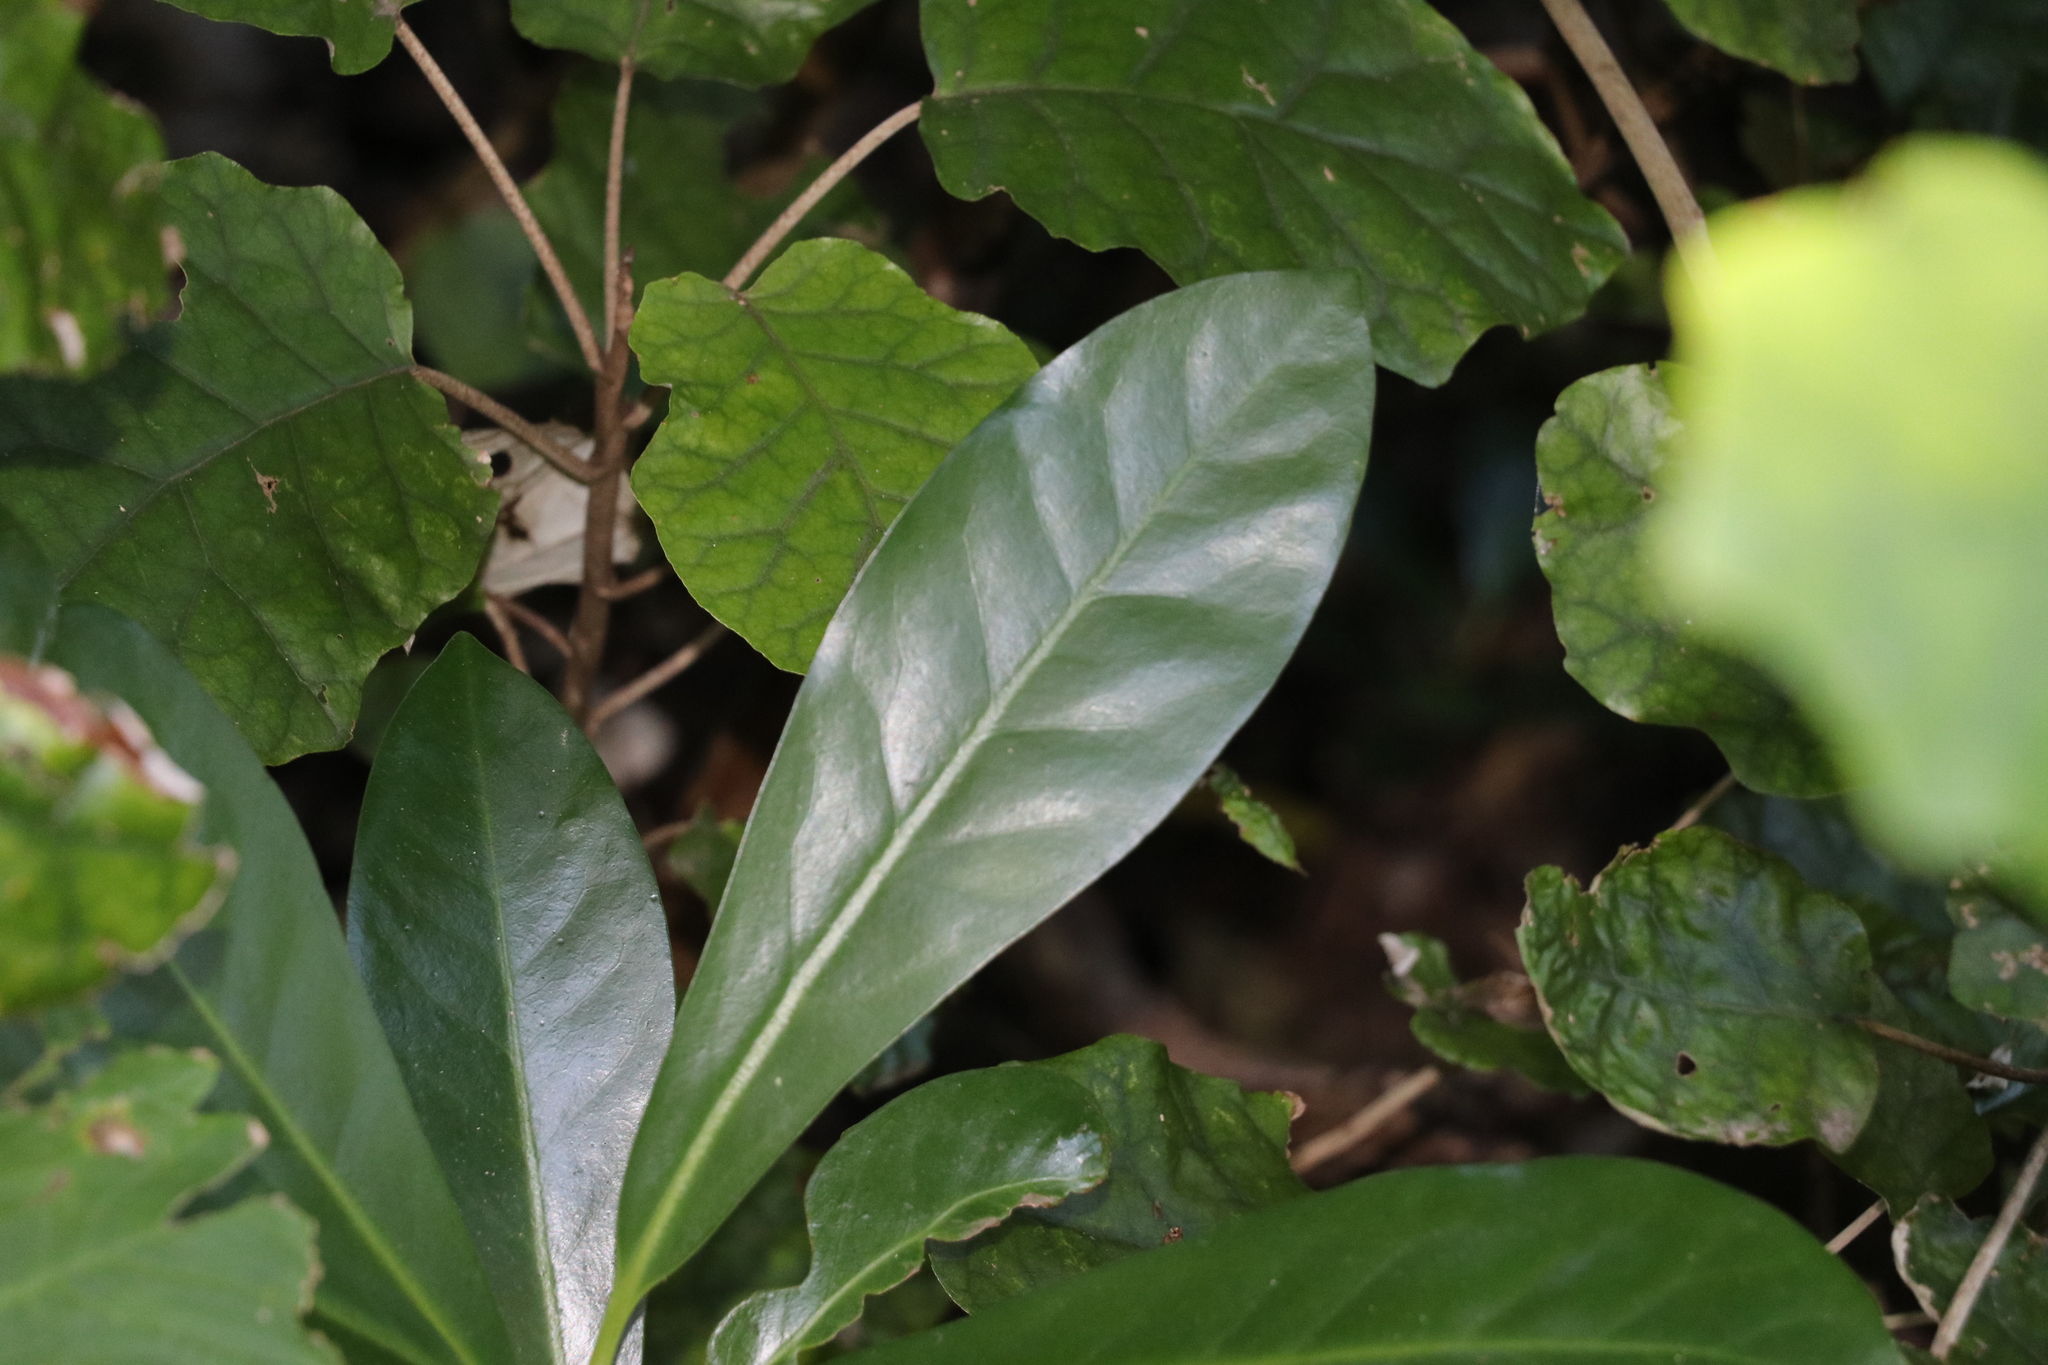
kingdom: Plantae
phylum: Tracheophyta
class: Magnoliopsida
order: Cucurbitales
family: Corynocarpaceae
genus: Corynocarpus
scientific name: Corynocarpus laevigatus
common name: New zealand laurel
